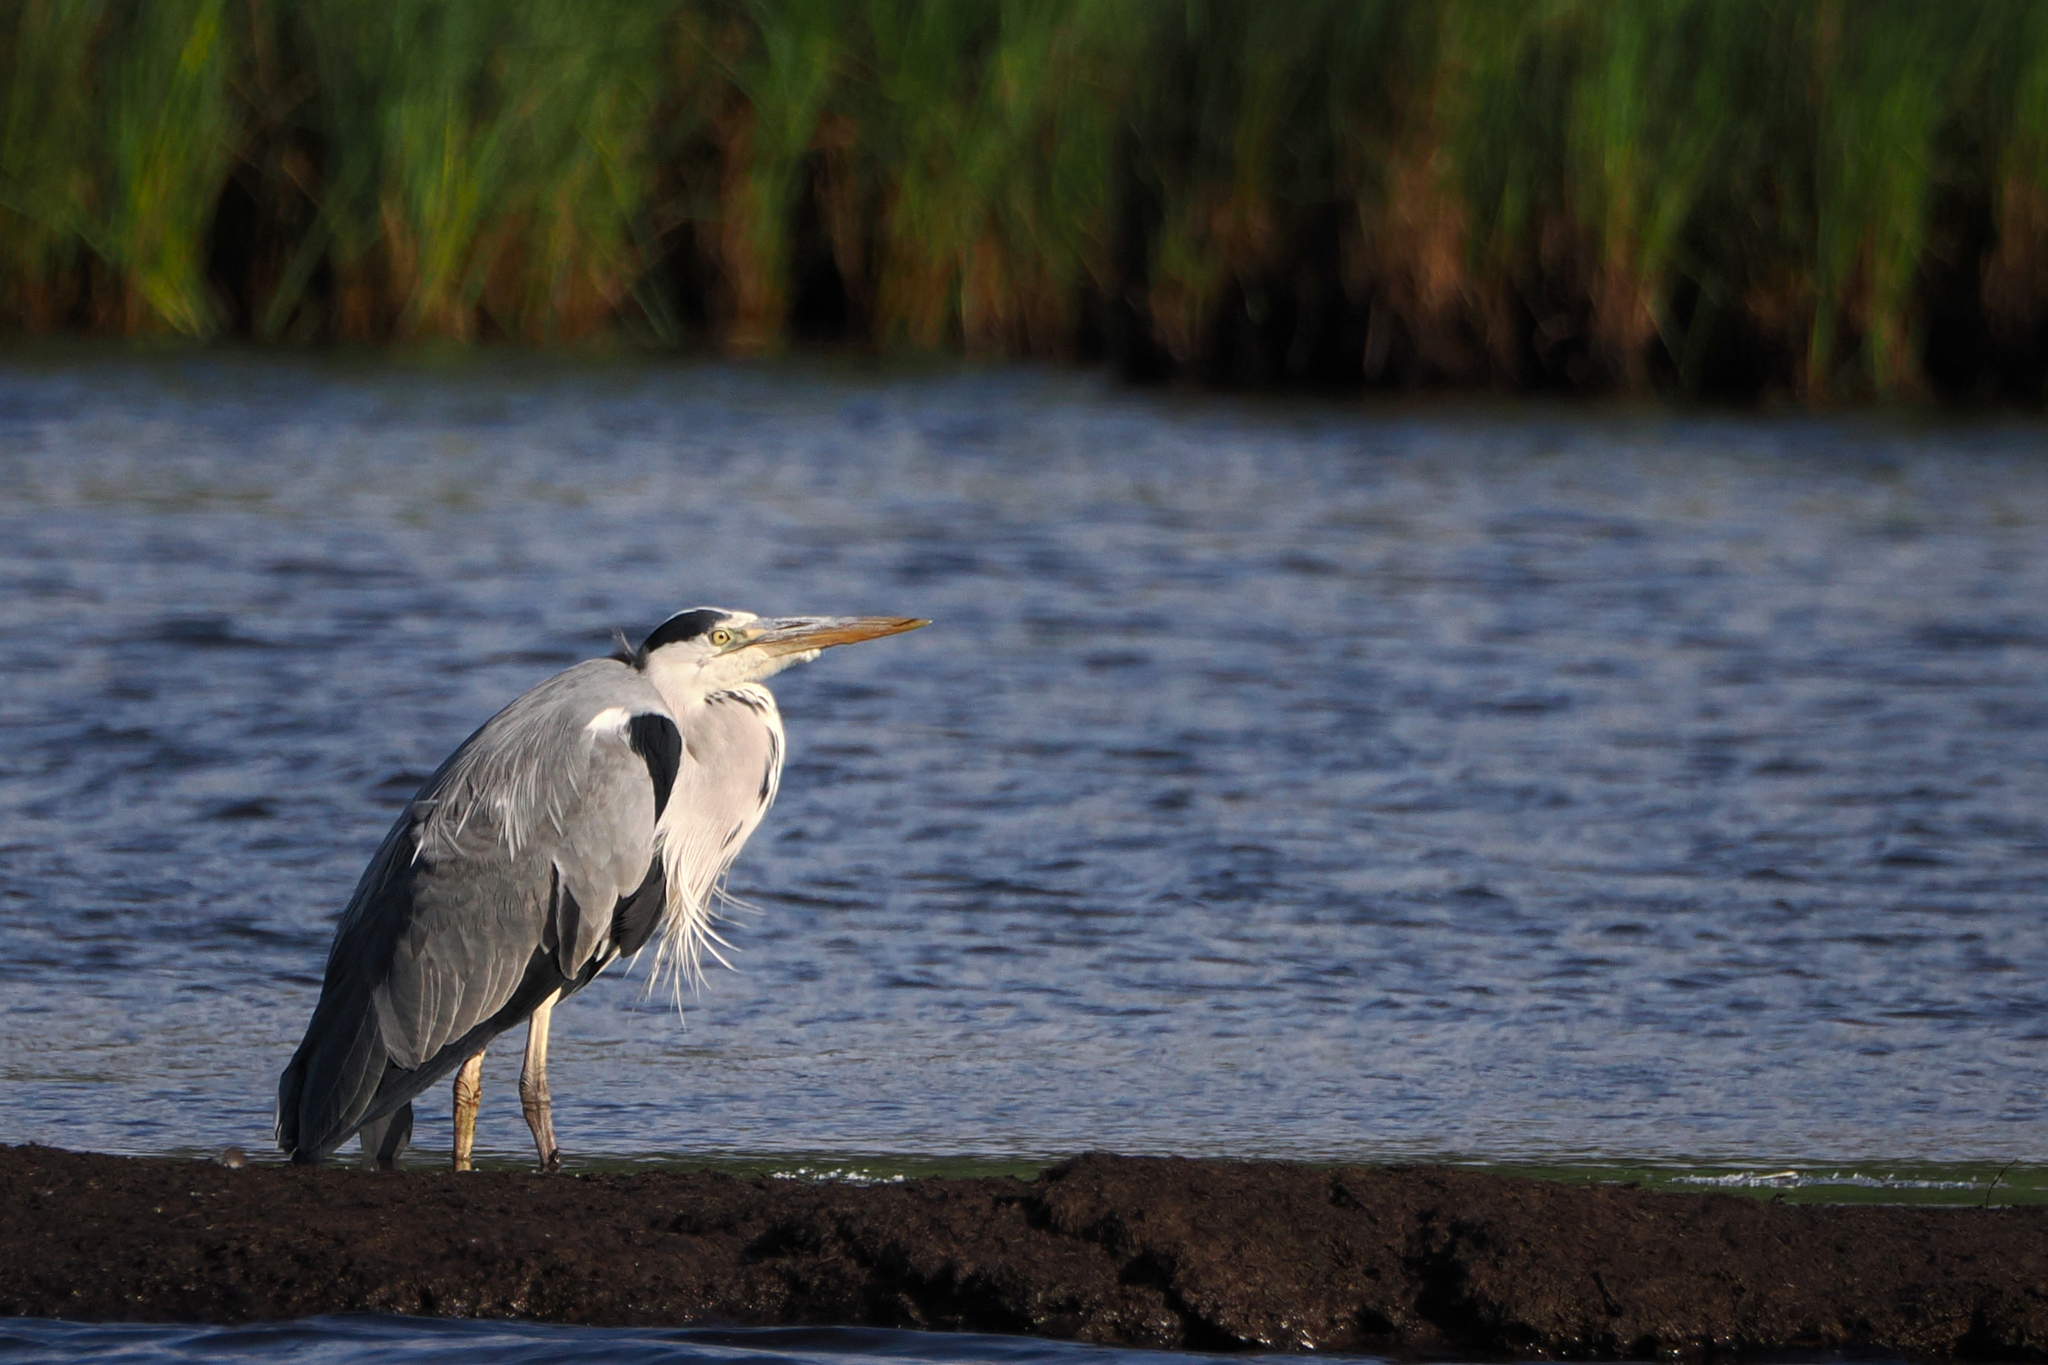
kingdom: Animalia
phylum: Chordata
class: Aves
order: Pelecaniformes
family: Ardeidae
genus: Ardea
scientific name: Ardea cinerea
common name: Grey heron
